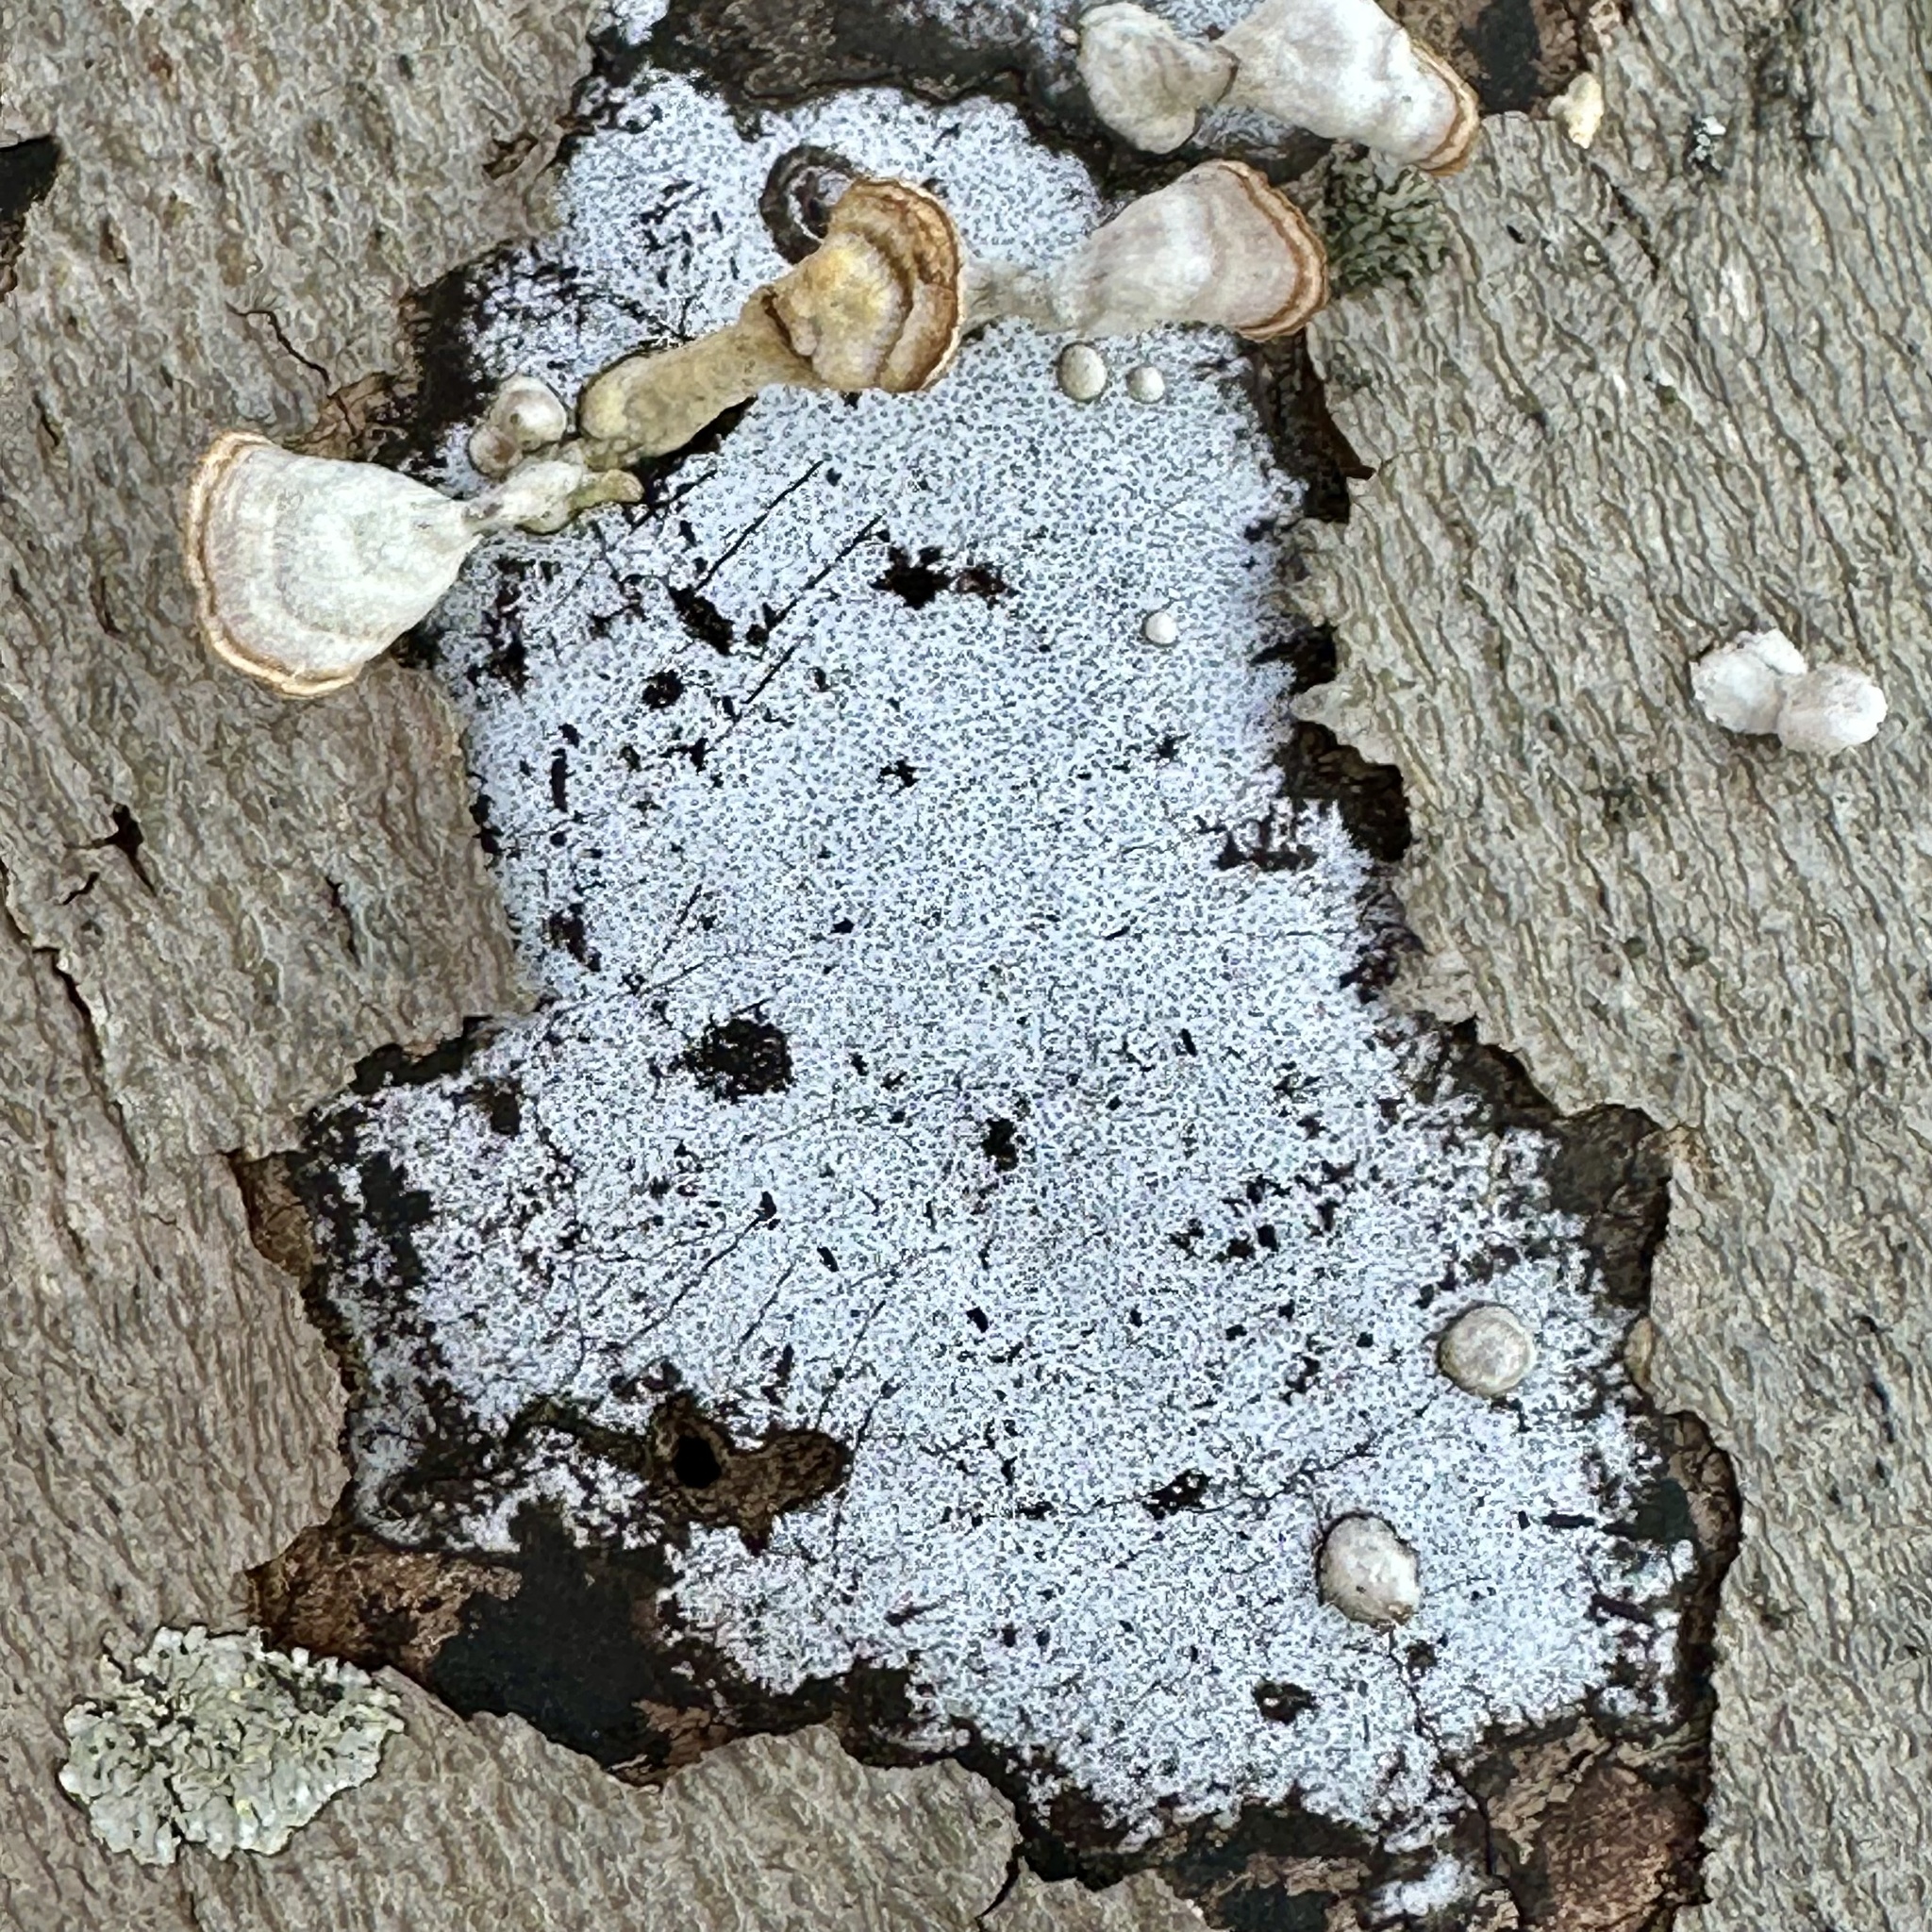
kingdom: Fungi
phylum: Ascomycota
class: Sordariomycetes
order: Xylariales
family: Graphostromataceae
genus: Biscogniauxia
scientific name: Biscogniauxia atropunctata
